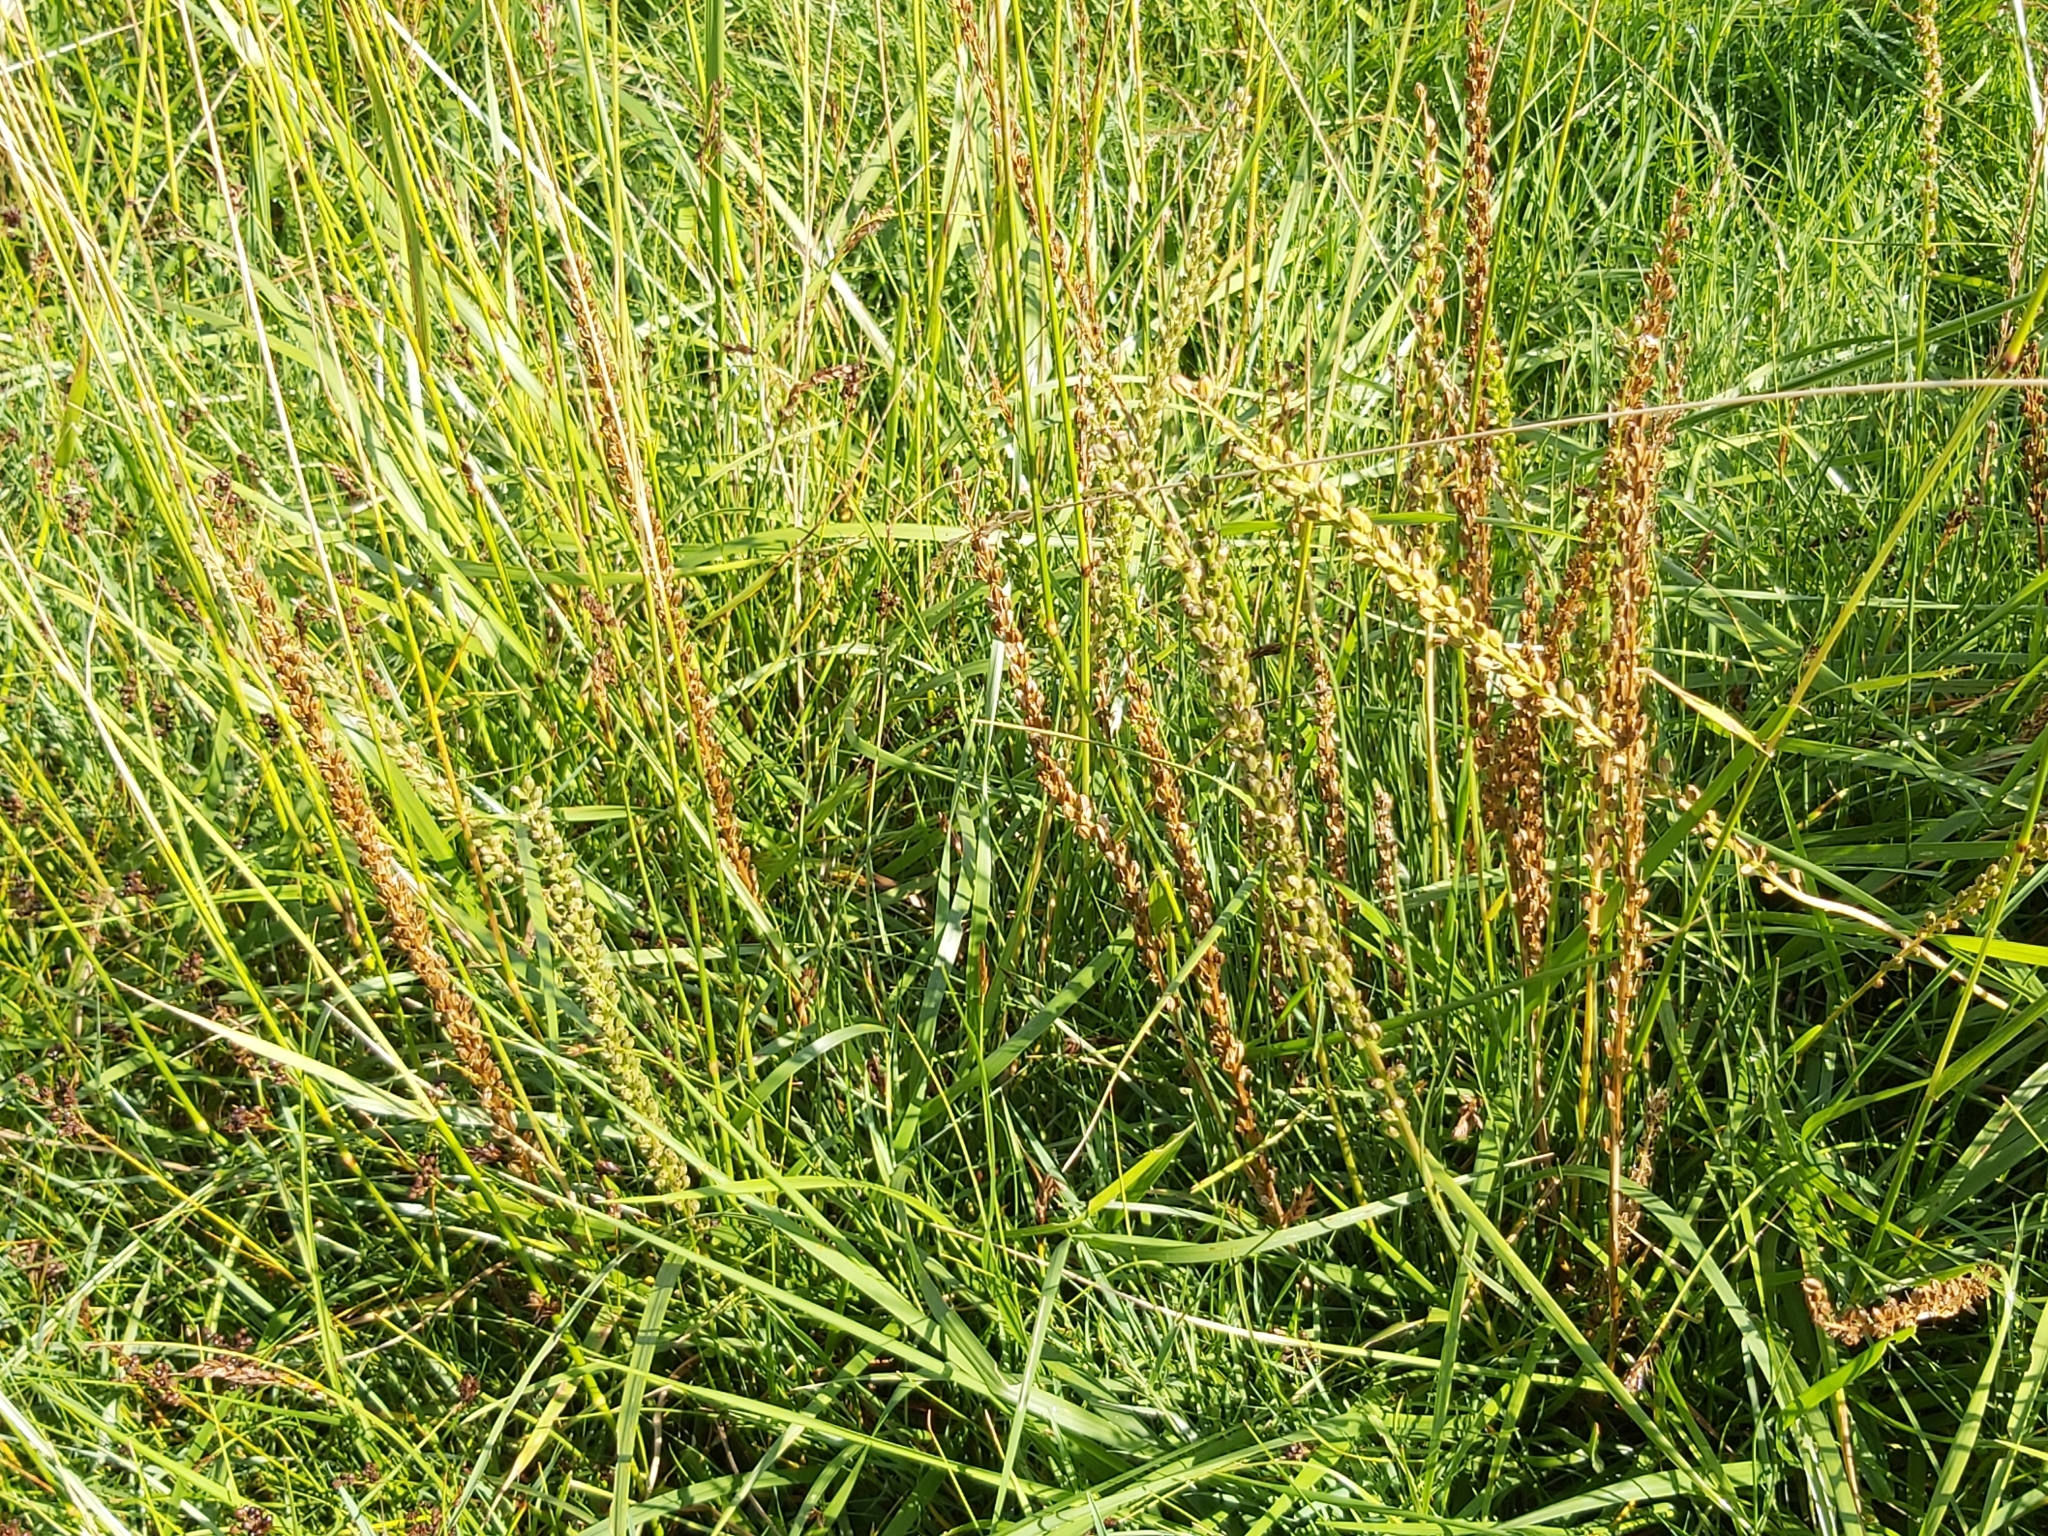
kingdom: Plantae
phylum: Tracheophyta
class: Liliopsida
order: Alismatales
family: Juncaginaceae
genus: Triglochin
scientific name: Triglochin maritima
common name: Sea arrowgrass
